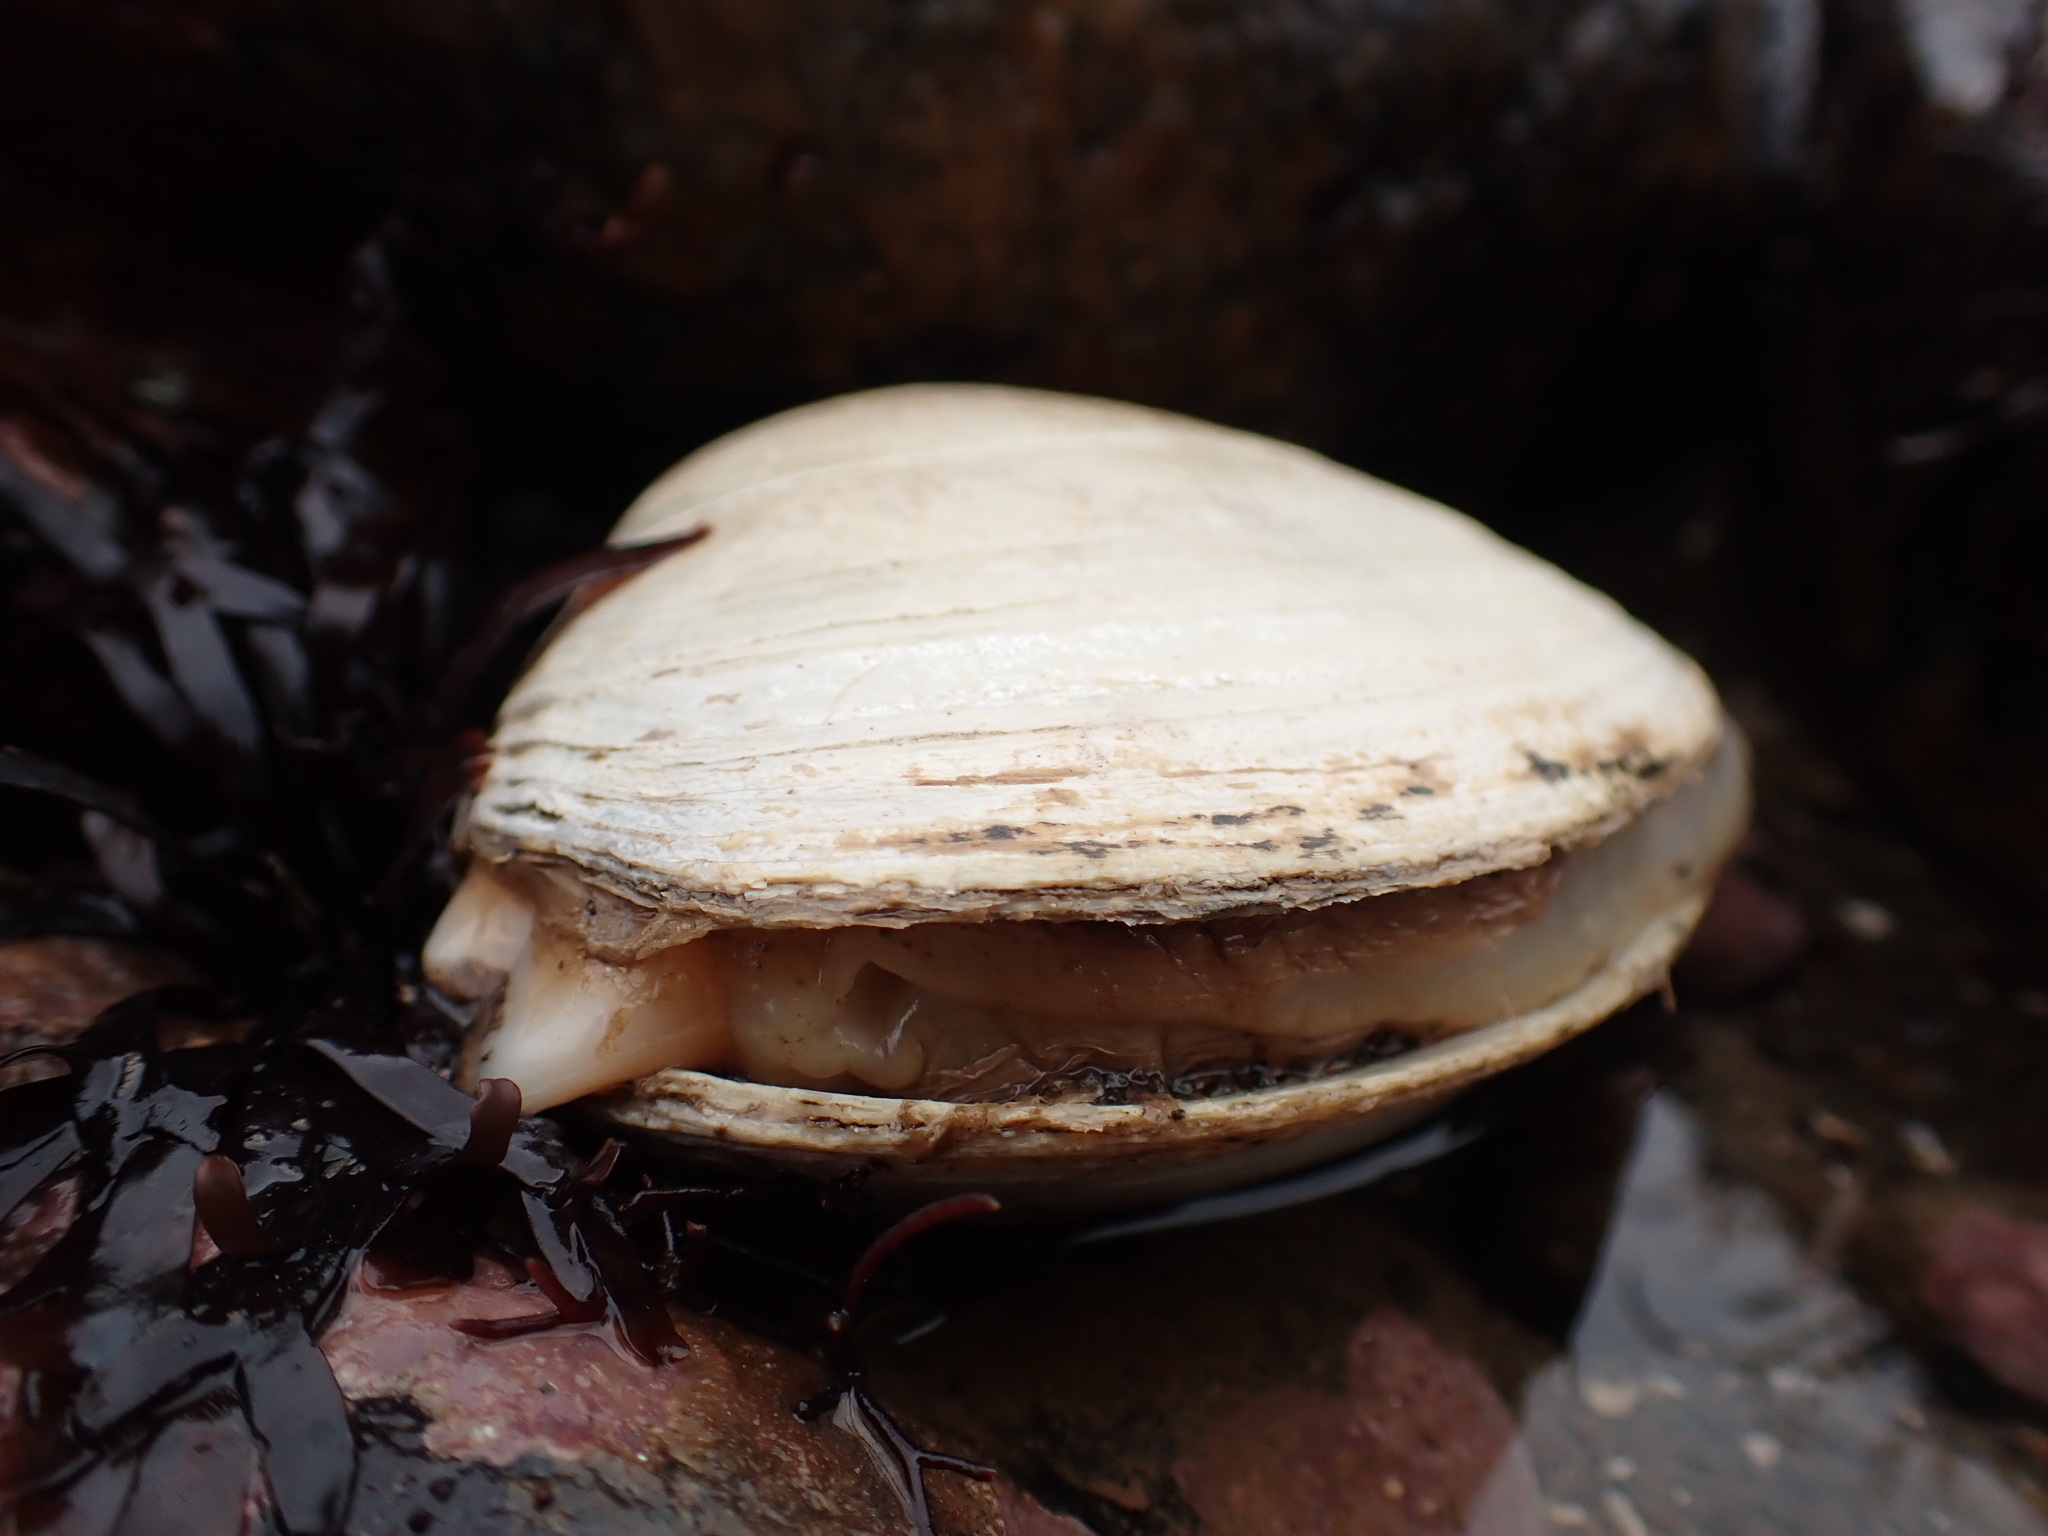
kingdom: Animalia
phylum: Mollusca
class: Bivalvia
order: Venerida
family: Mactridae
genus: Spisula
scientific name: Spisula solidissima
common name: Atlantic surf clam
